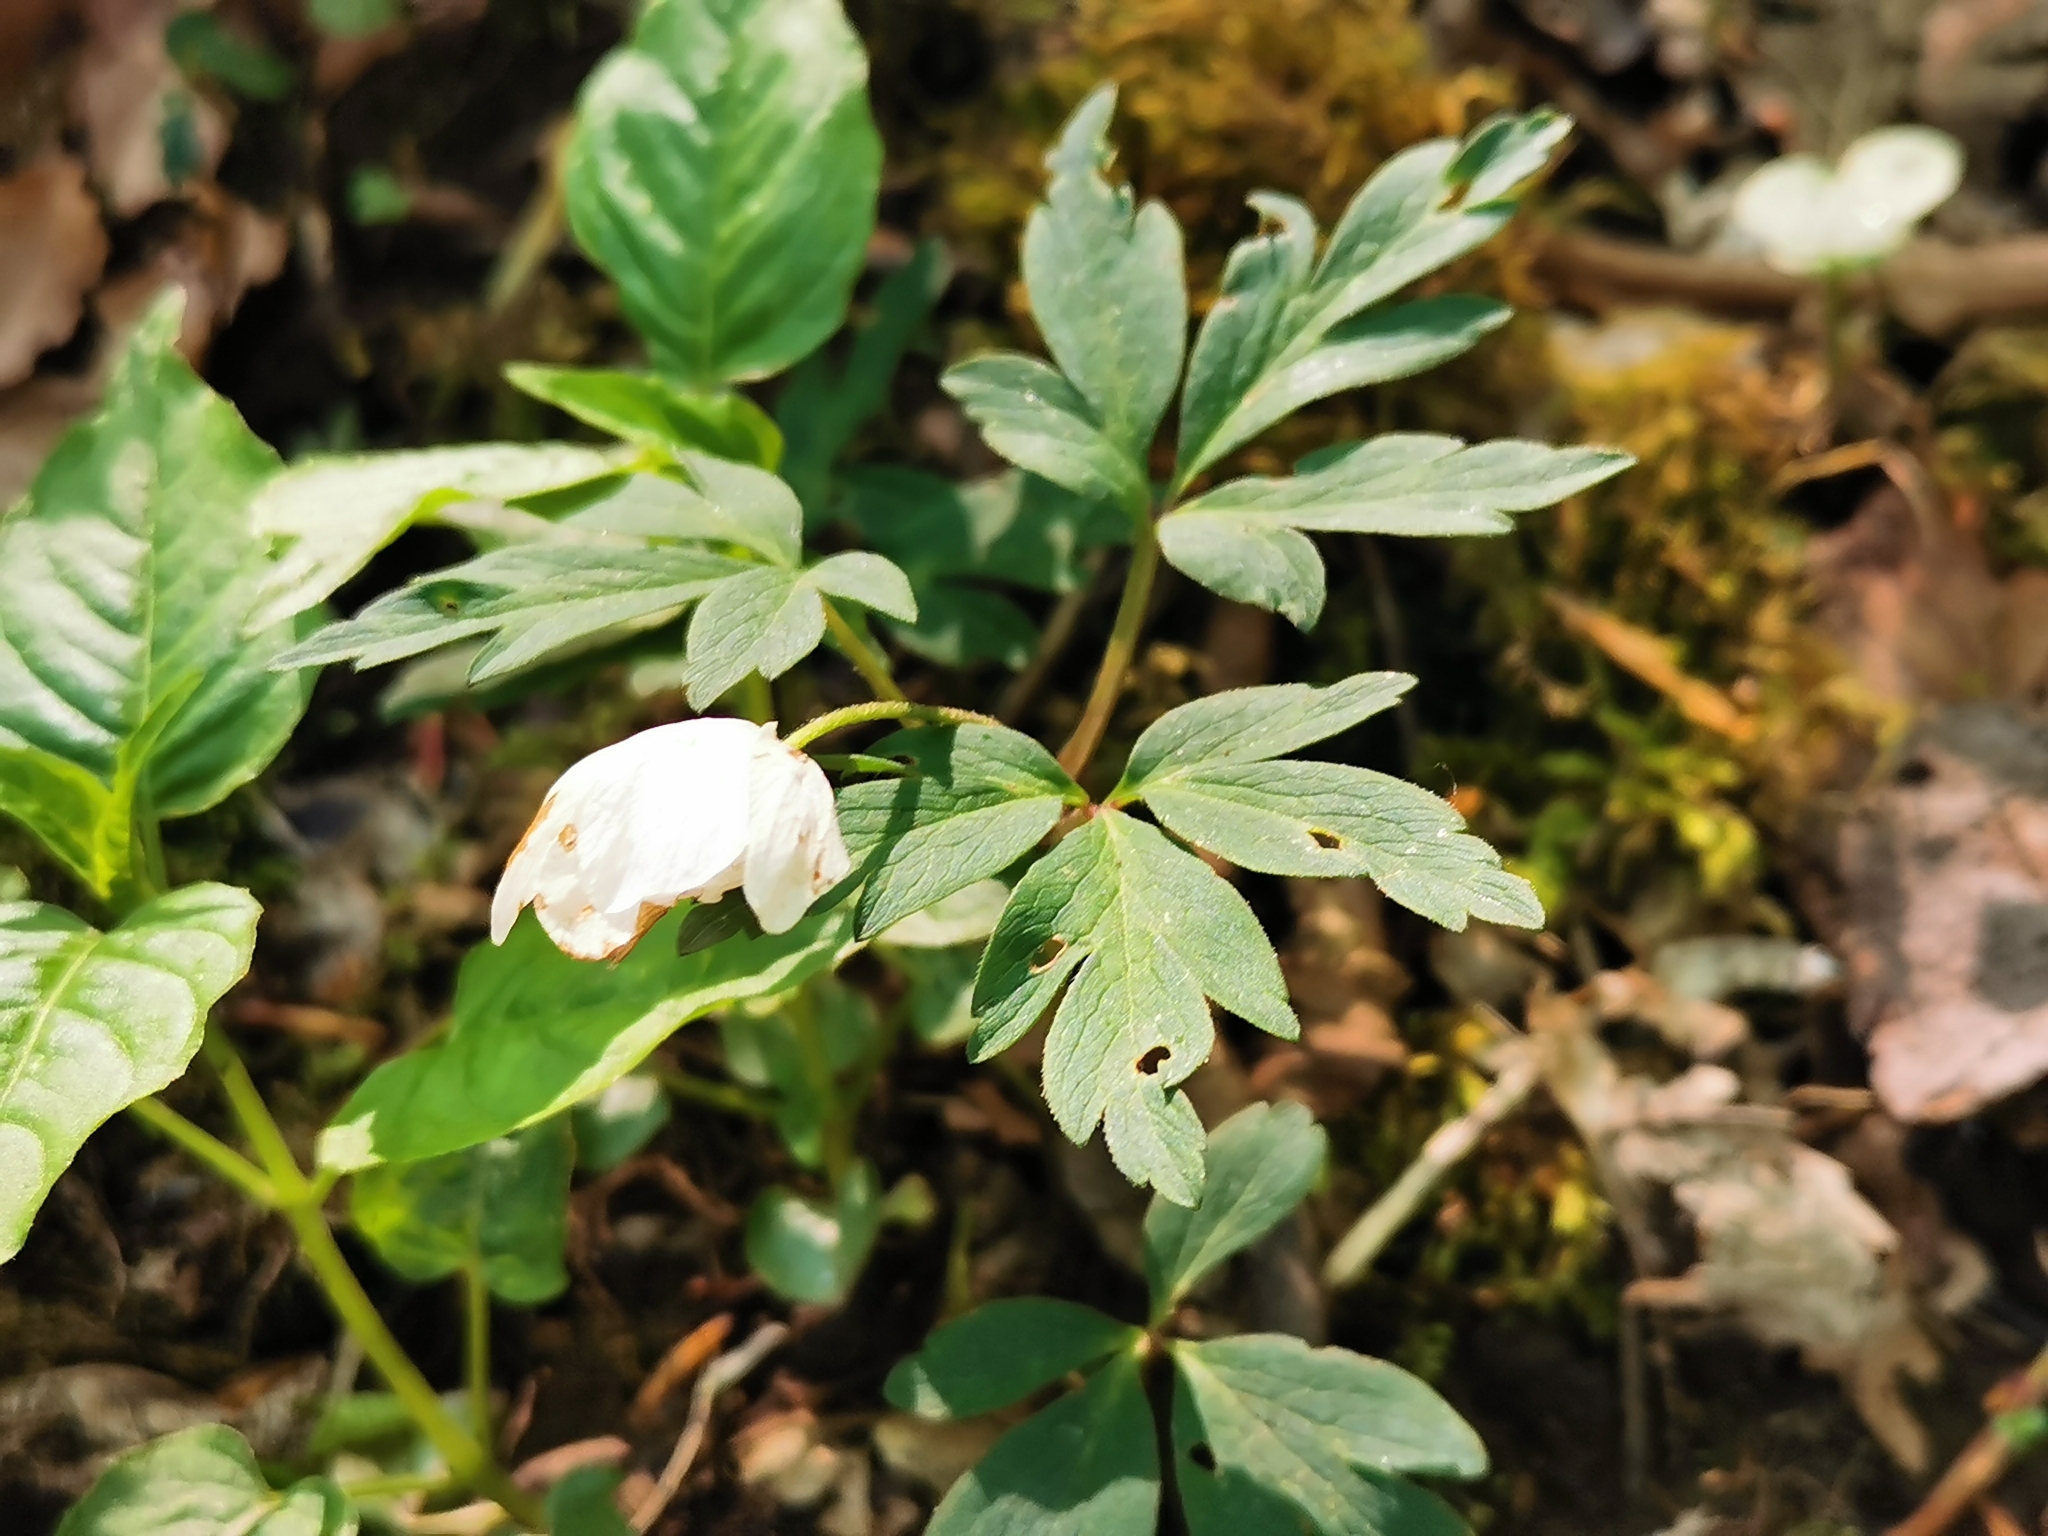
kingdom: Plantae
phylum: Tracheophyta
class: Magnoliopsida
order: Ranunculales
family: Ranunculaceae
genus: Anemone
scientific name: Anemone nemorosa
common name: Wood anemone
